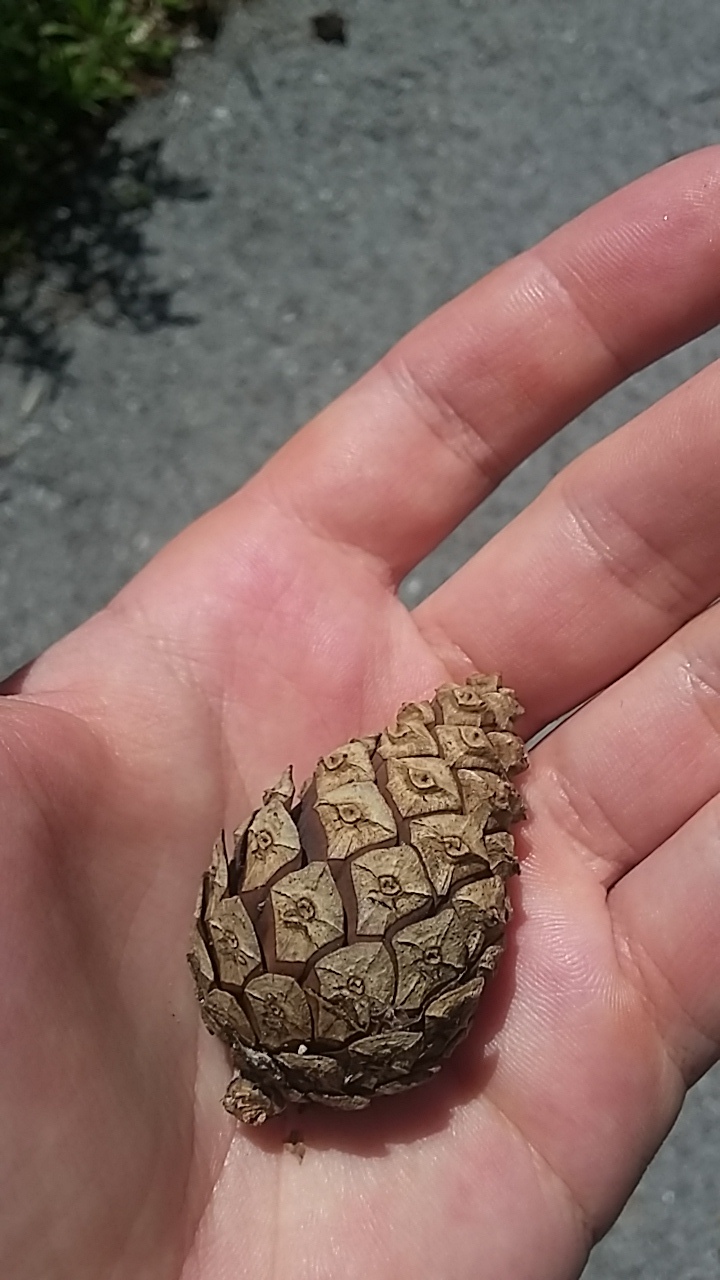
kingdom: Plantae
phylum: Tracheophyta
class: Pinopsida
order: Pinales
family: Pinaceae
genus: Pinus
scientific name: Pinus sylvestris
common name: Scots pine
